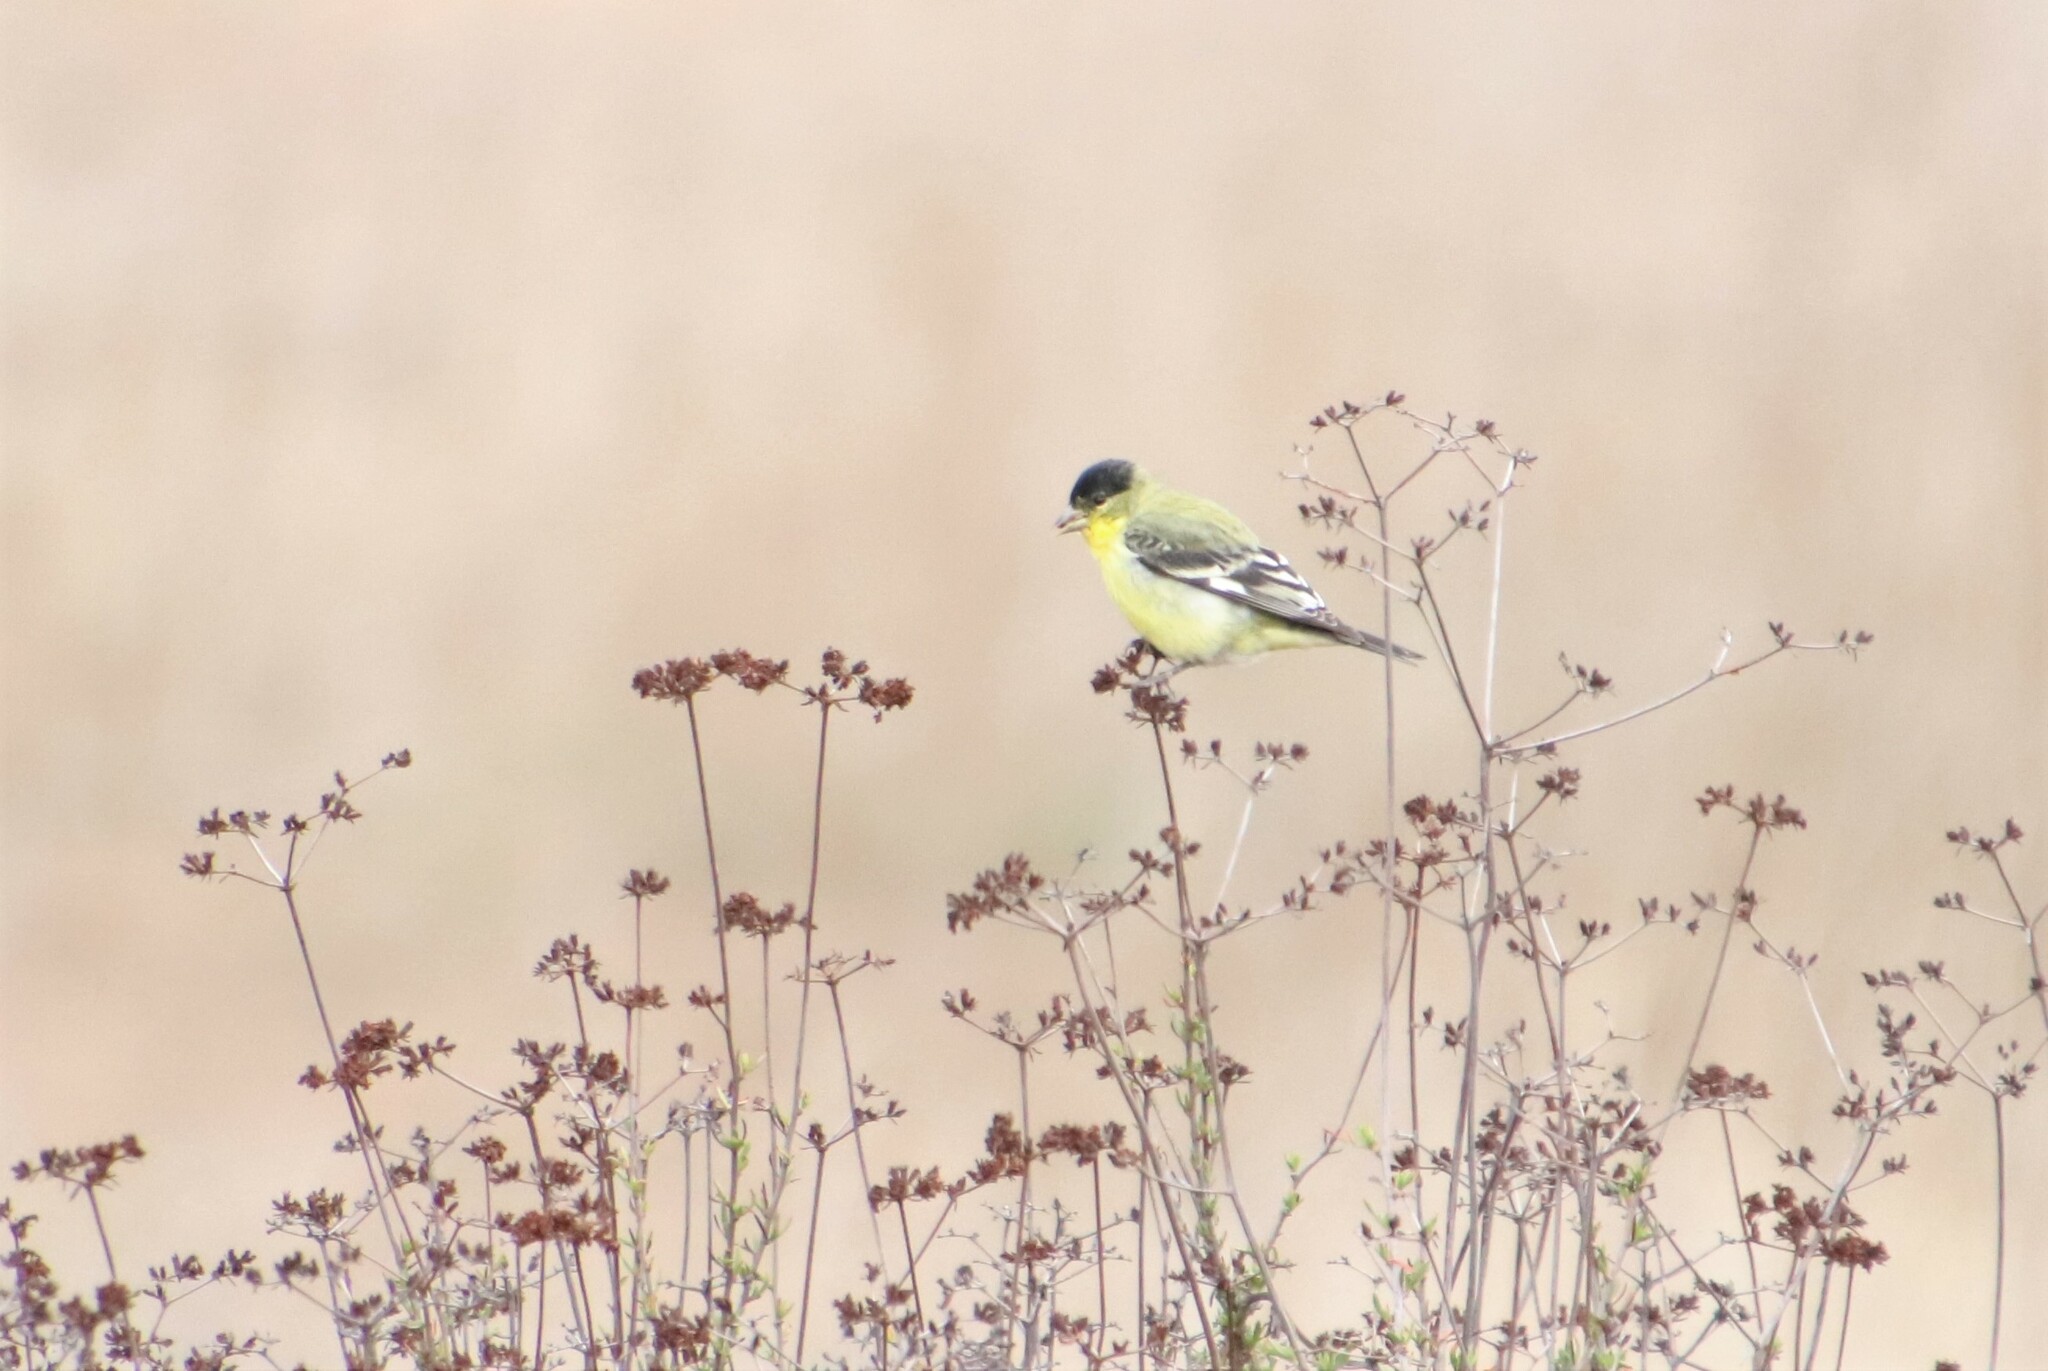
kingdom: Animalia
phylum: Chordata
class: Aves
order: Passeriformes
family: Fringillidae
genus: Spinus
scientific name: Spinus psaltria
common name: Lesser goldfinch
